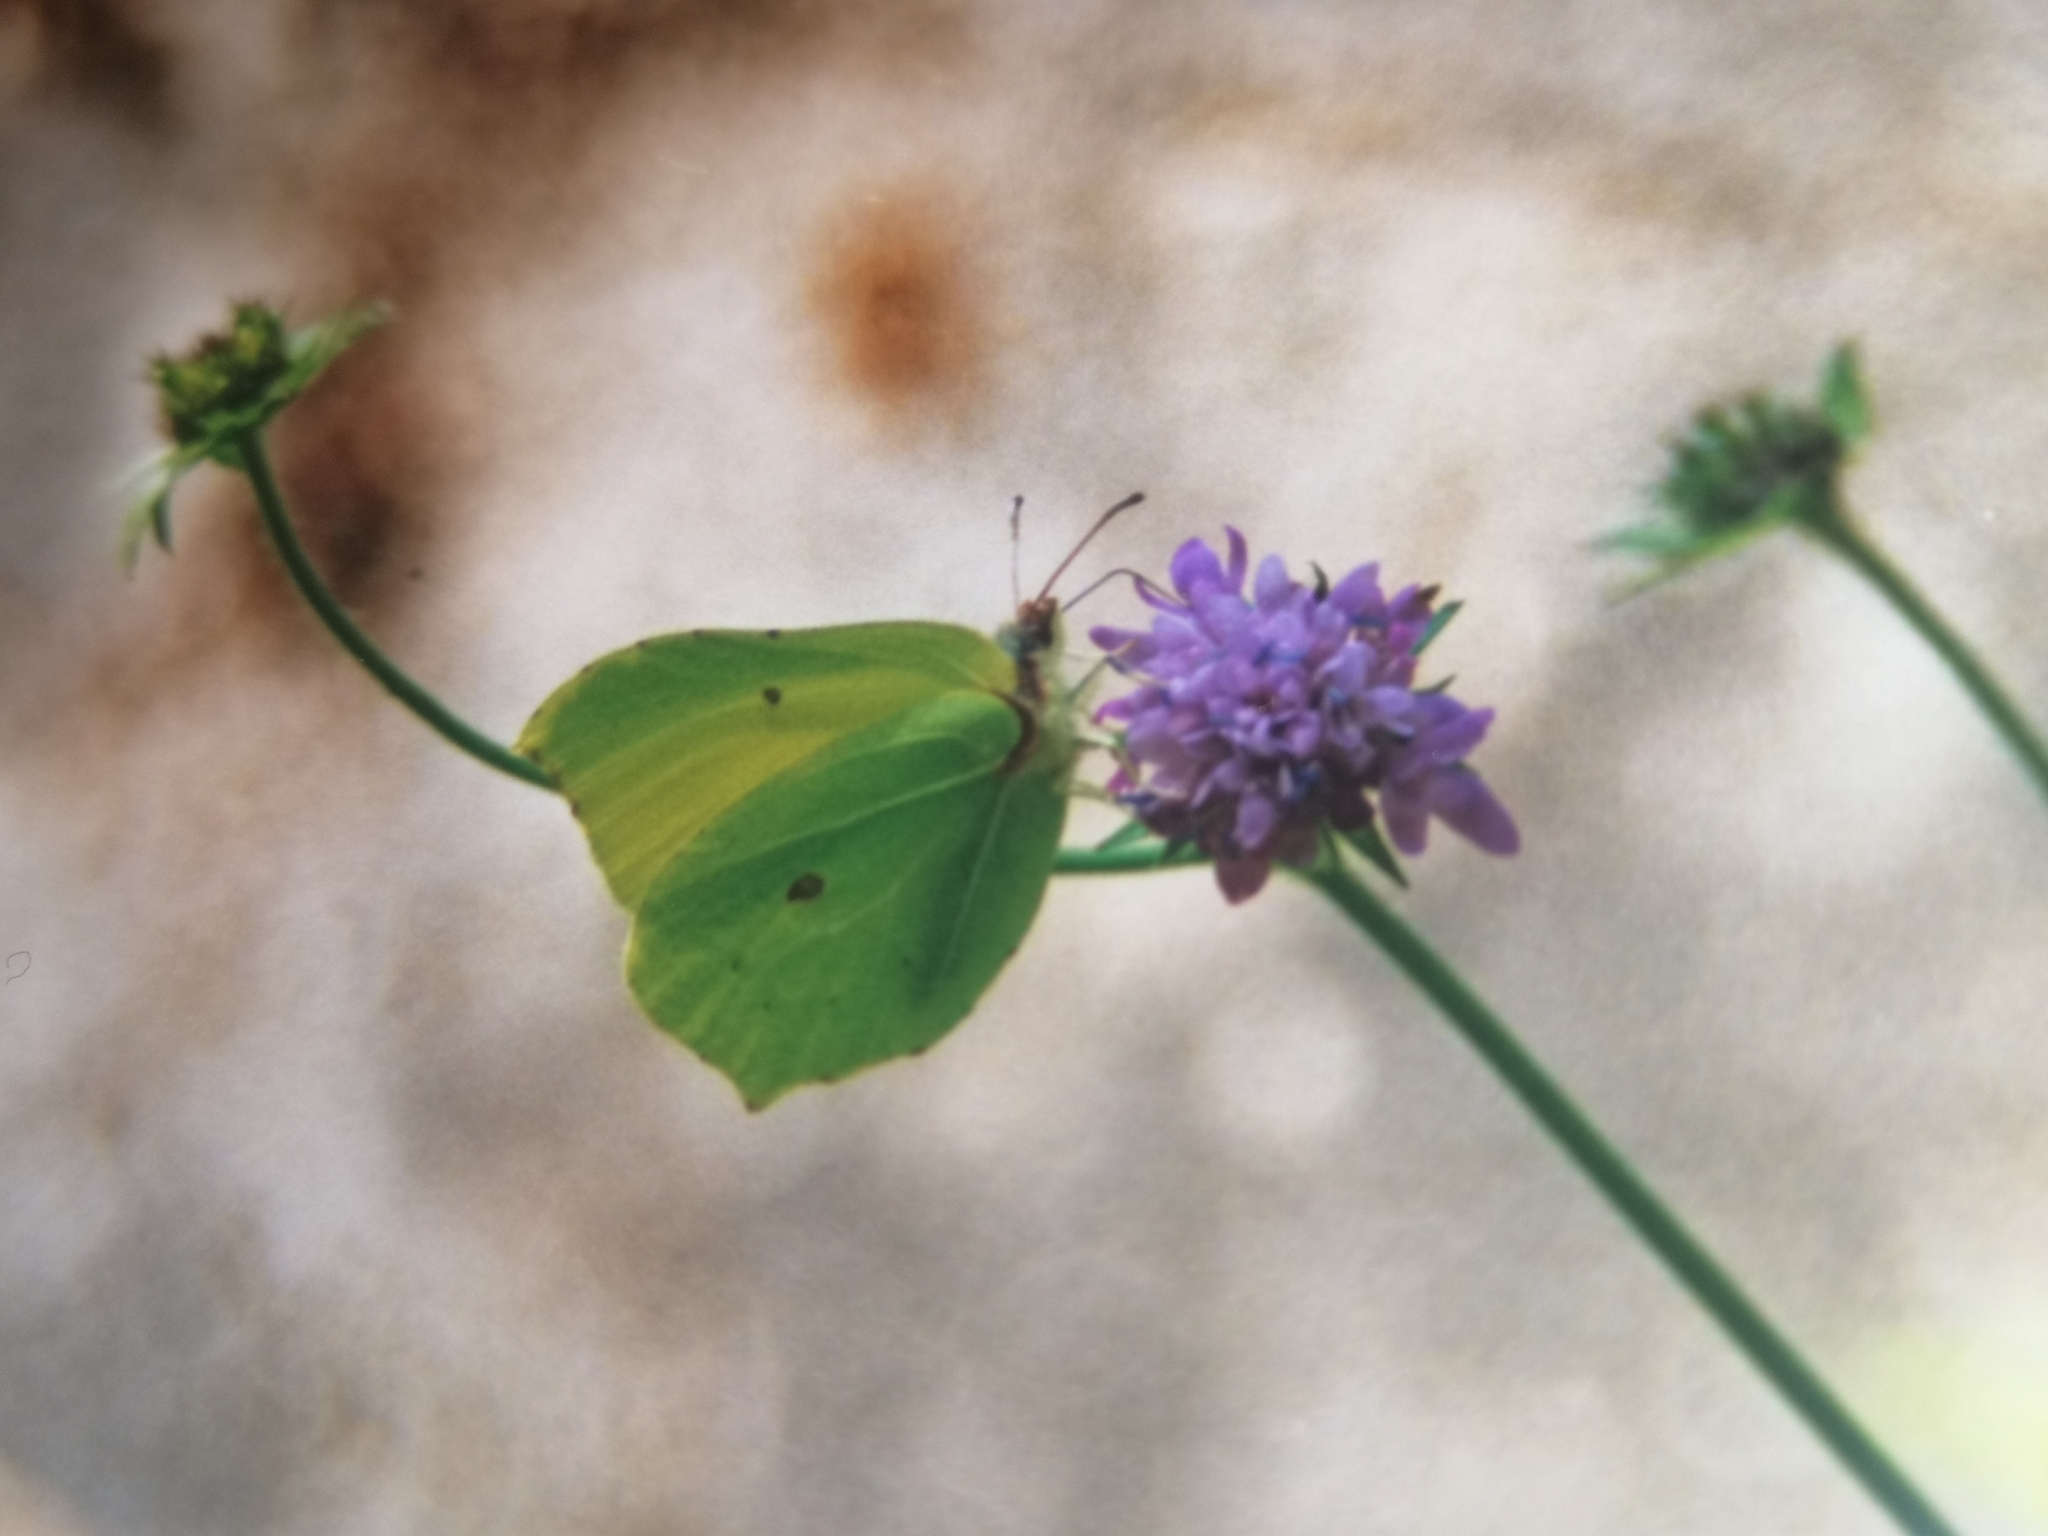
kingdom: Animalia
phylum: Arthropoda
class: Insecta
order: Lepidoptera
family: Pieridae
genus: Gonepteryx
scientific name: Gonepteryx rhamni
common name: Brimstone
